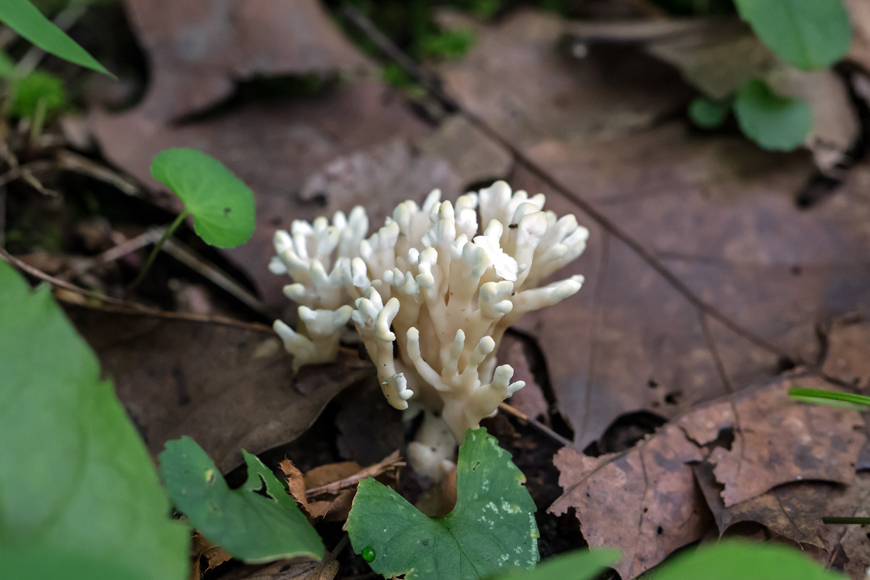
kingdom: Fungi
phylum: Basidiomycota
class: Agaricomycetes
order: Sebacinales
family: Sebacinaceae
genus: Sebacina
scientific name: Sebacina schweinitzii
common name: Jellied false coral fungus
